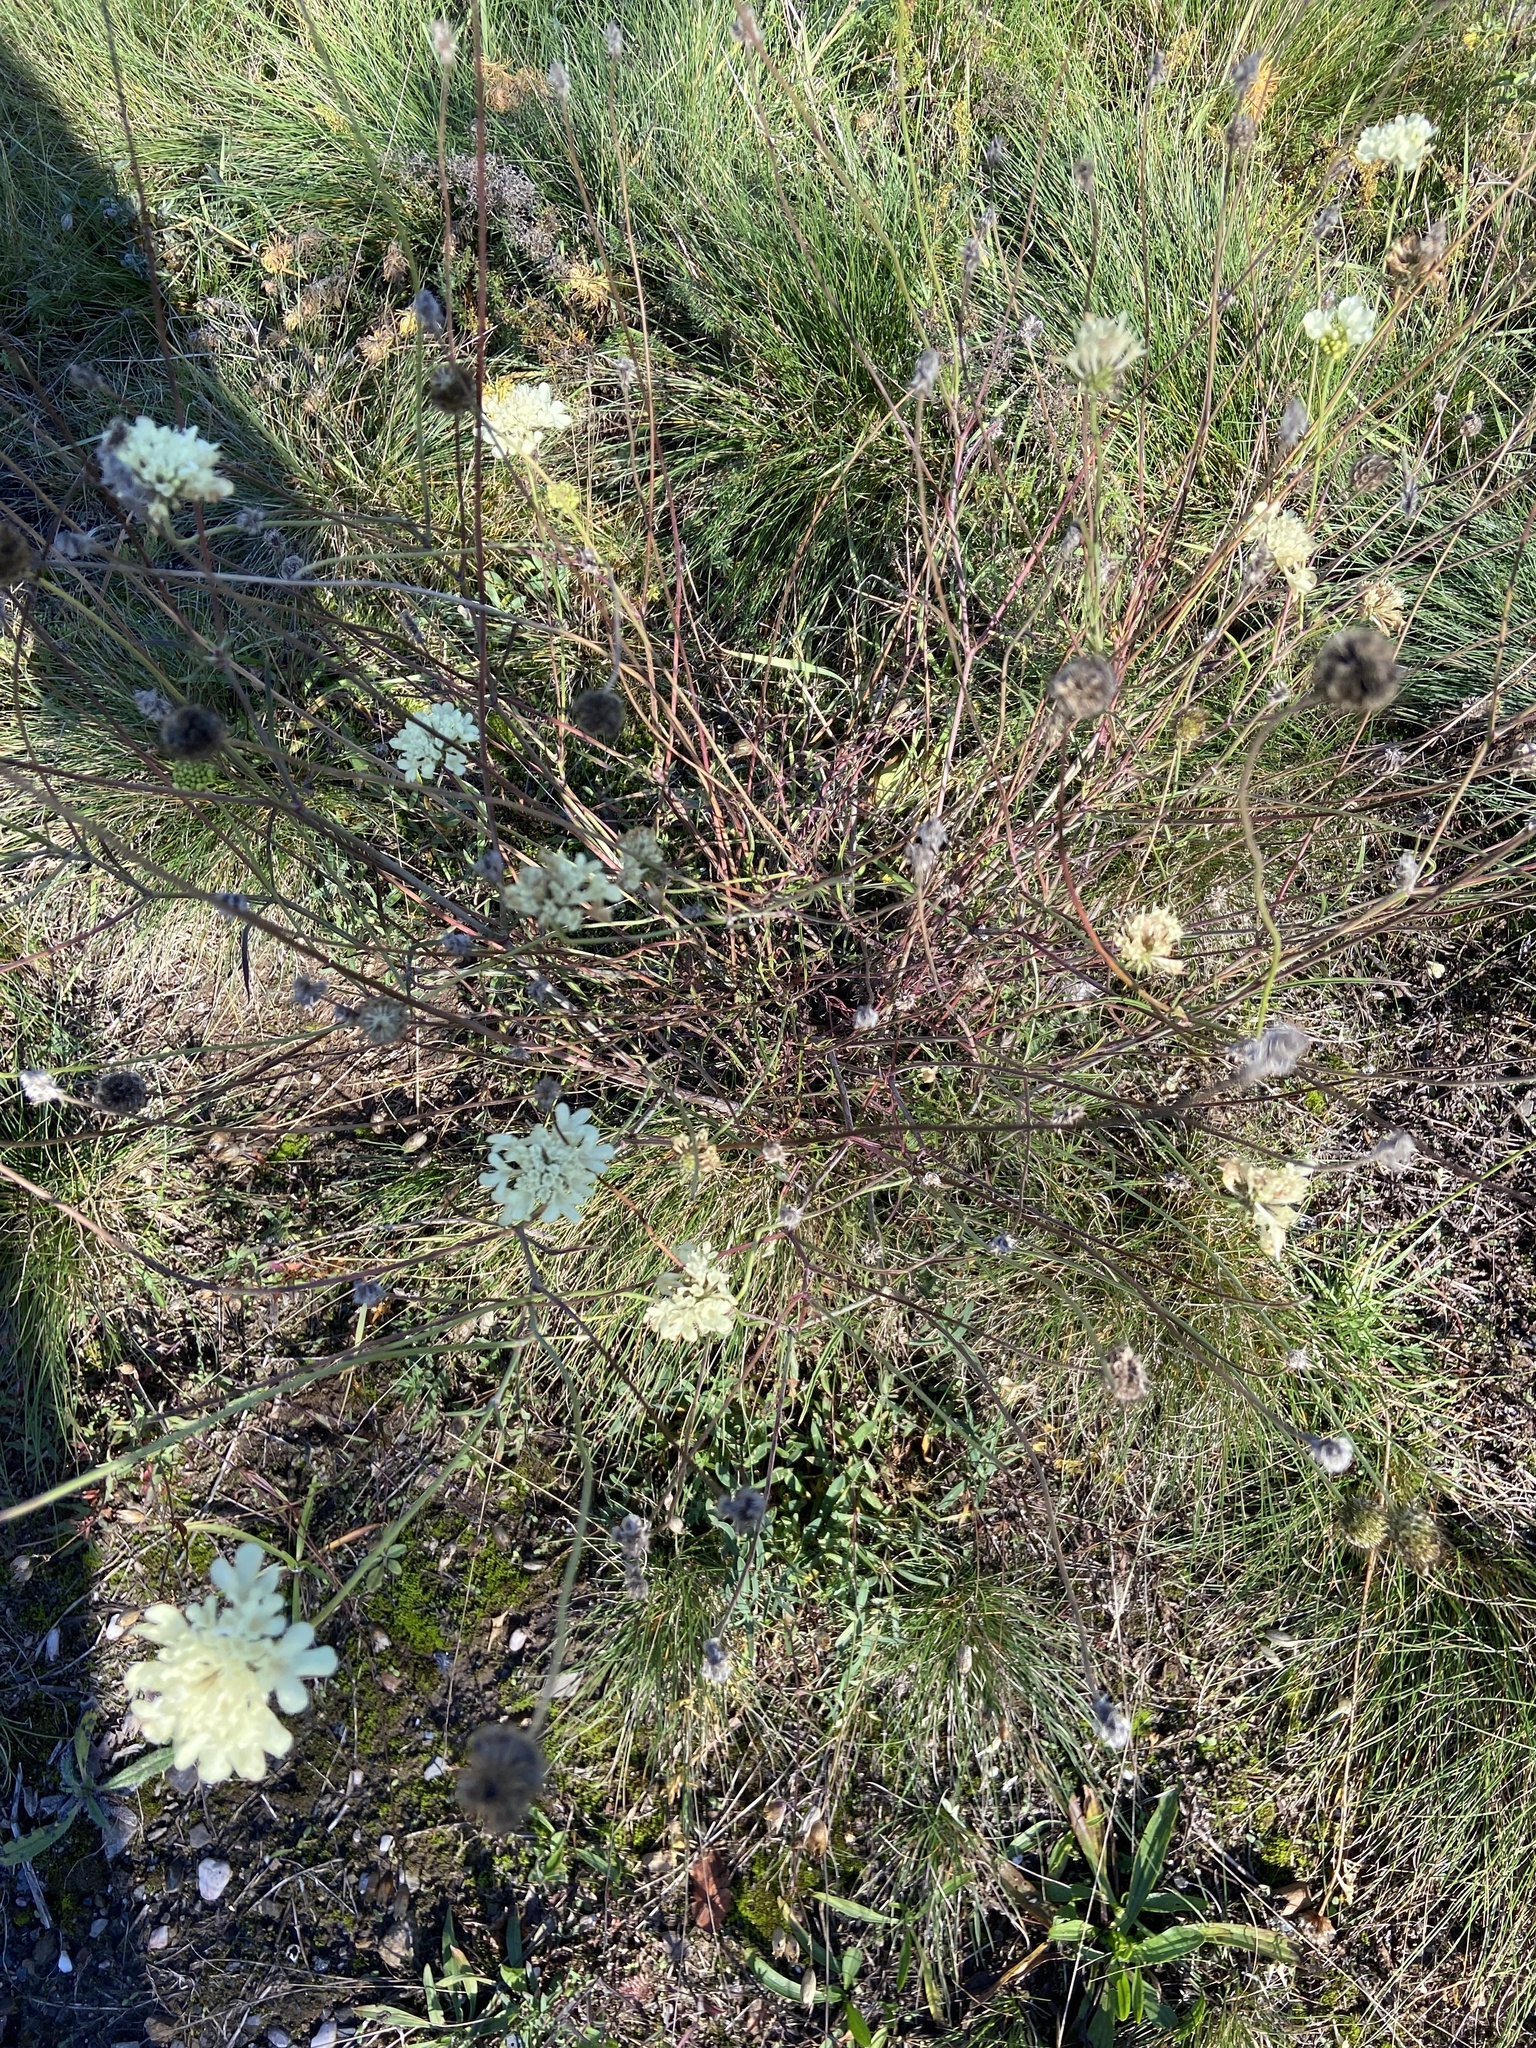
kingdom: Plantae
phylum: Tracheophyta
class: Magnoliopsida
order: Dipsacales
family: Caprifoliaceae
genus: Scabiosa
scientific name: Scabiosa ochroleuca
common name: Cream pincushions
